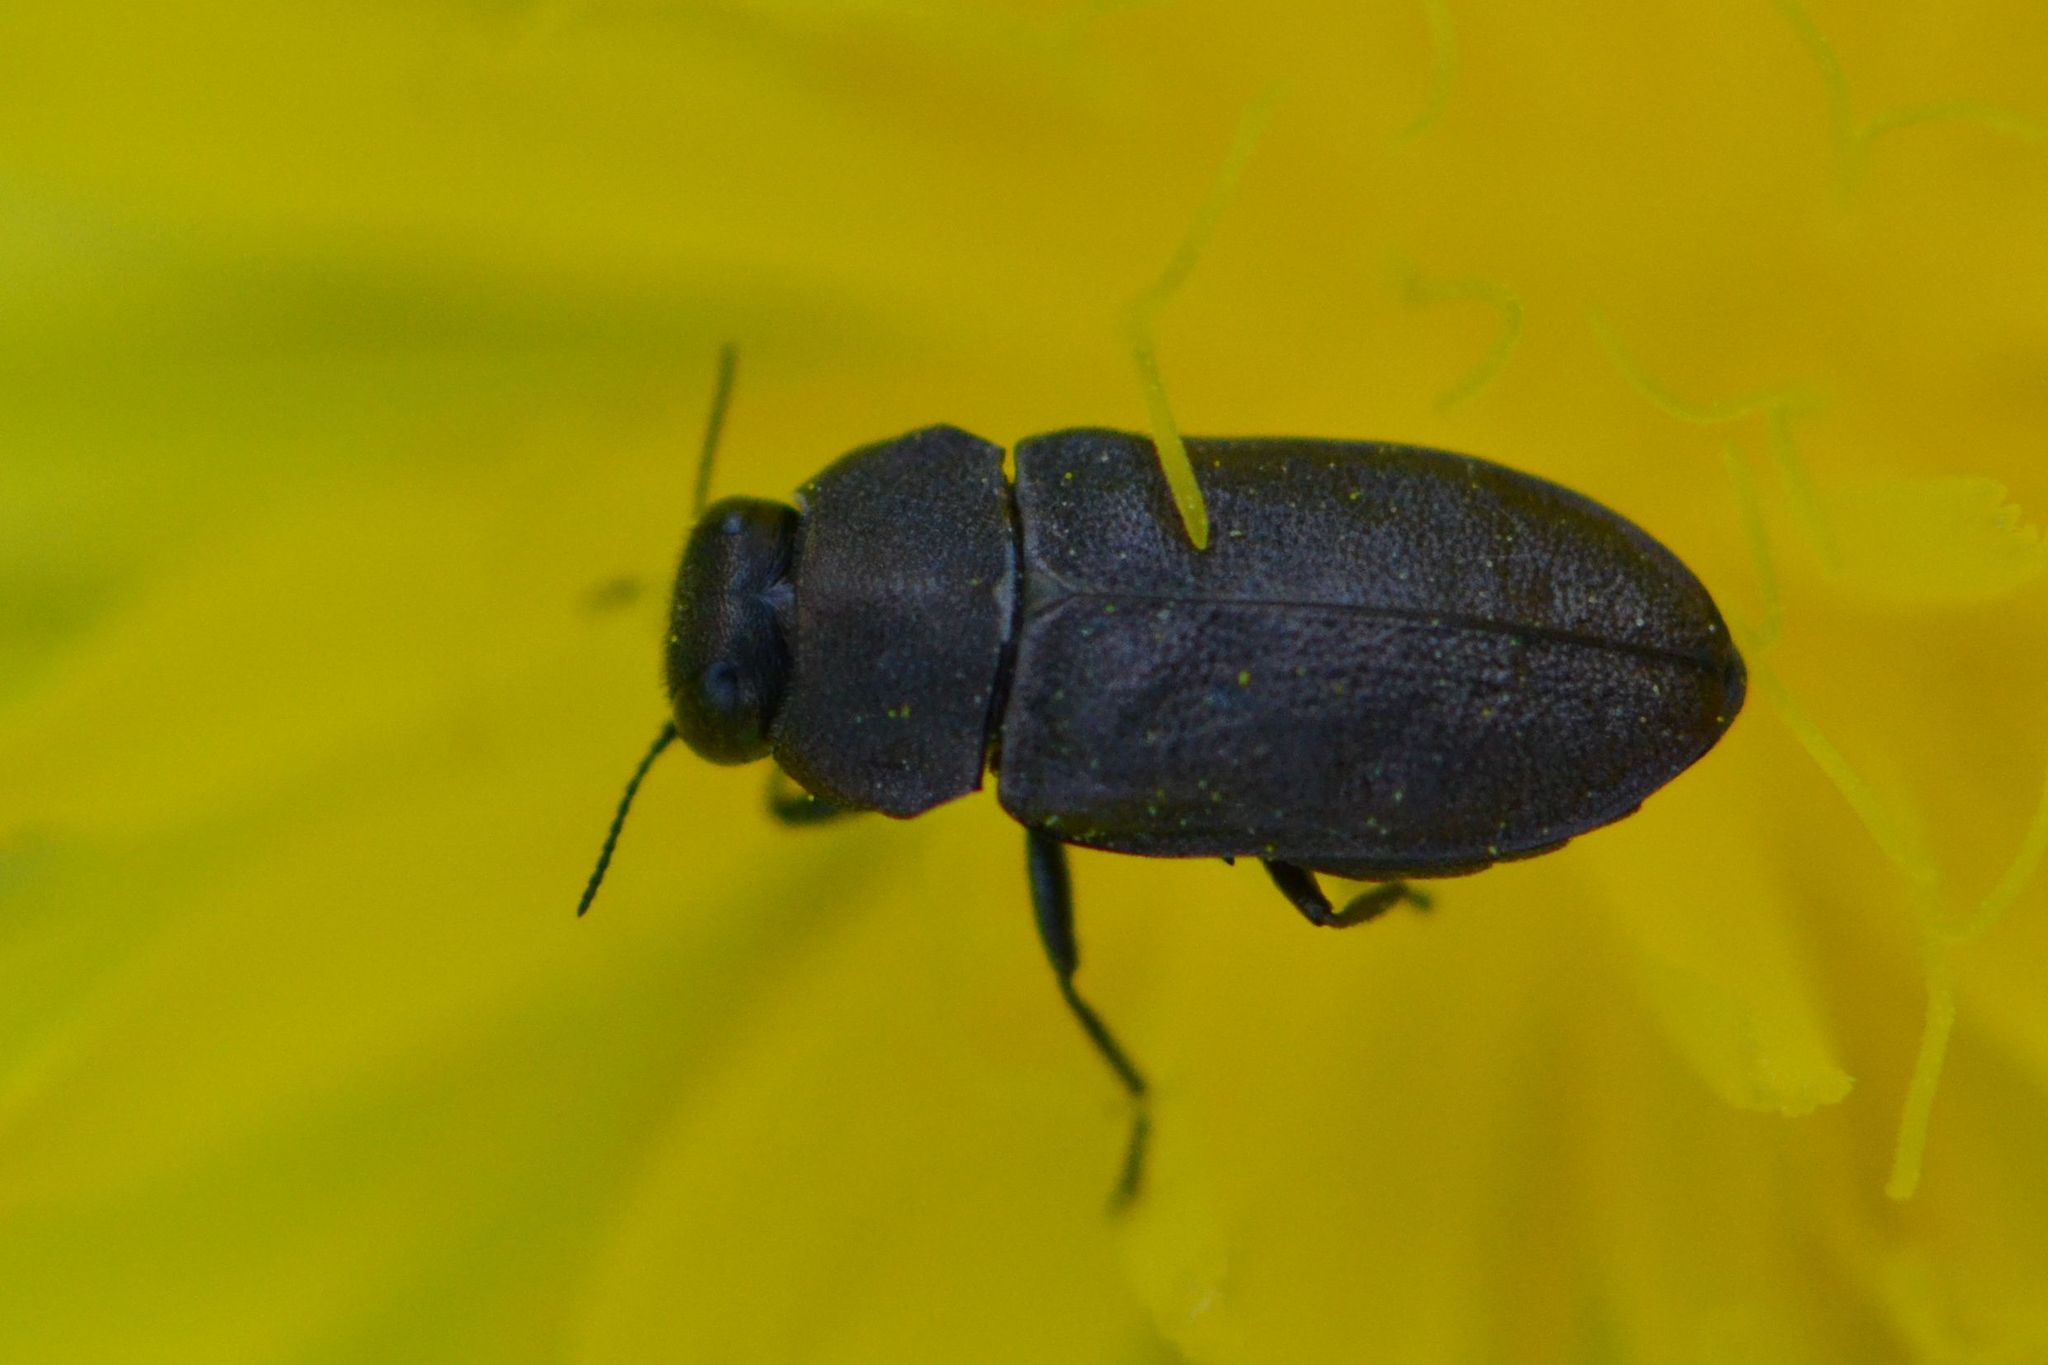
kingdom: Animalia
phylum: Arthropoda
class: Insecta
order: Coleoptera
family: Buprestidae
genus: Anthaxia
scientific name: Anthaxia helvetica
